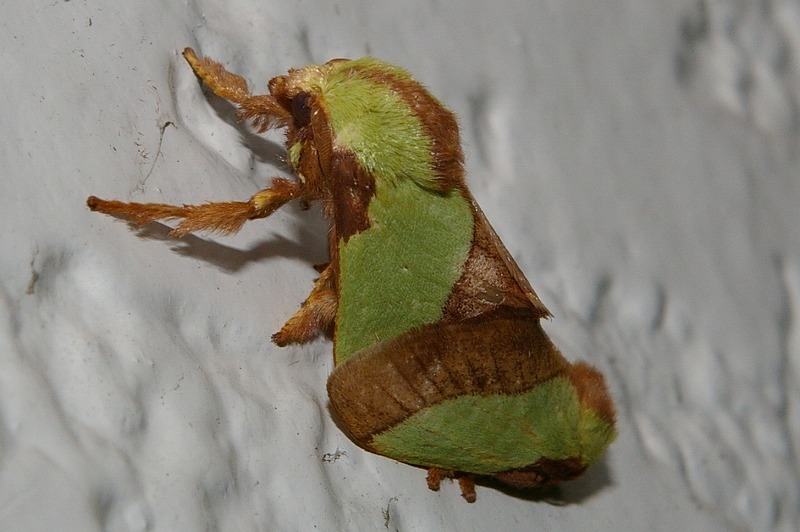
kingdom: Animalia
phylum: Arthropoda
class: Insecta
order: Lepidoptera
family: Limacodidae
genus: Parasa
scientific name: Parasa lepida
